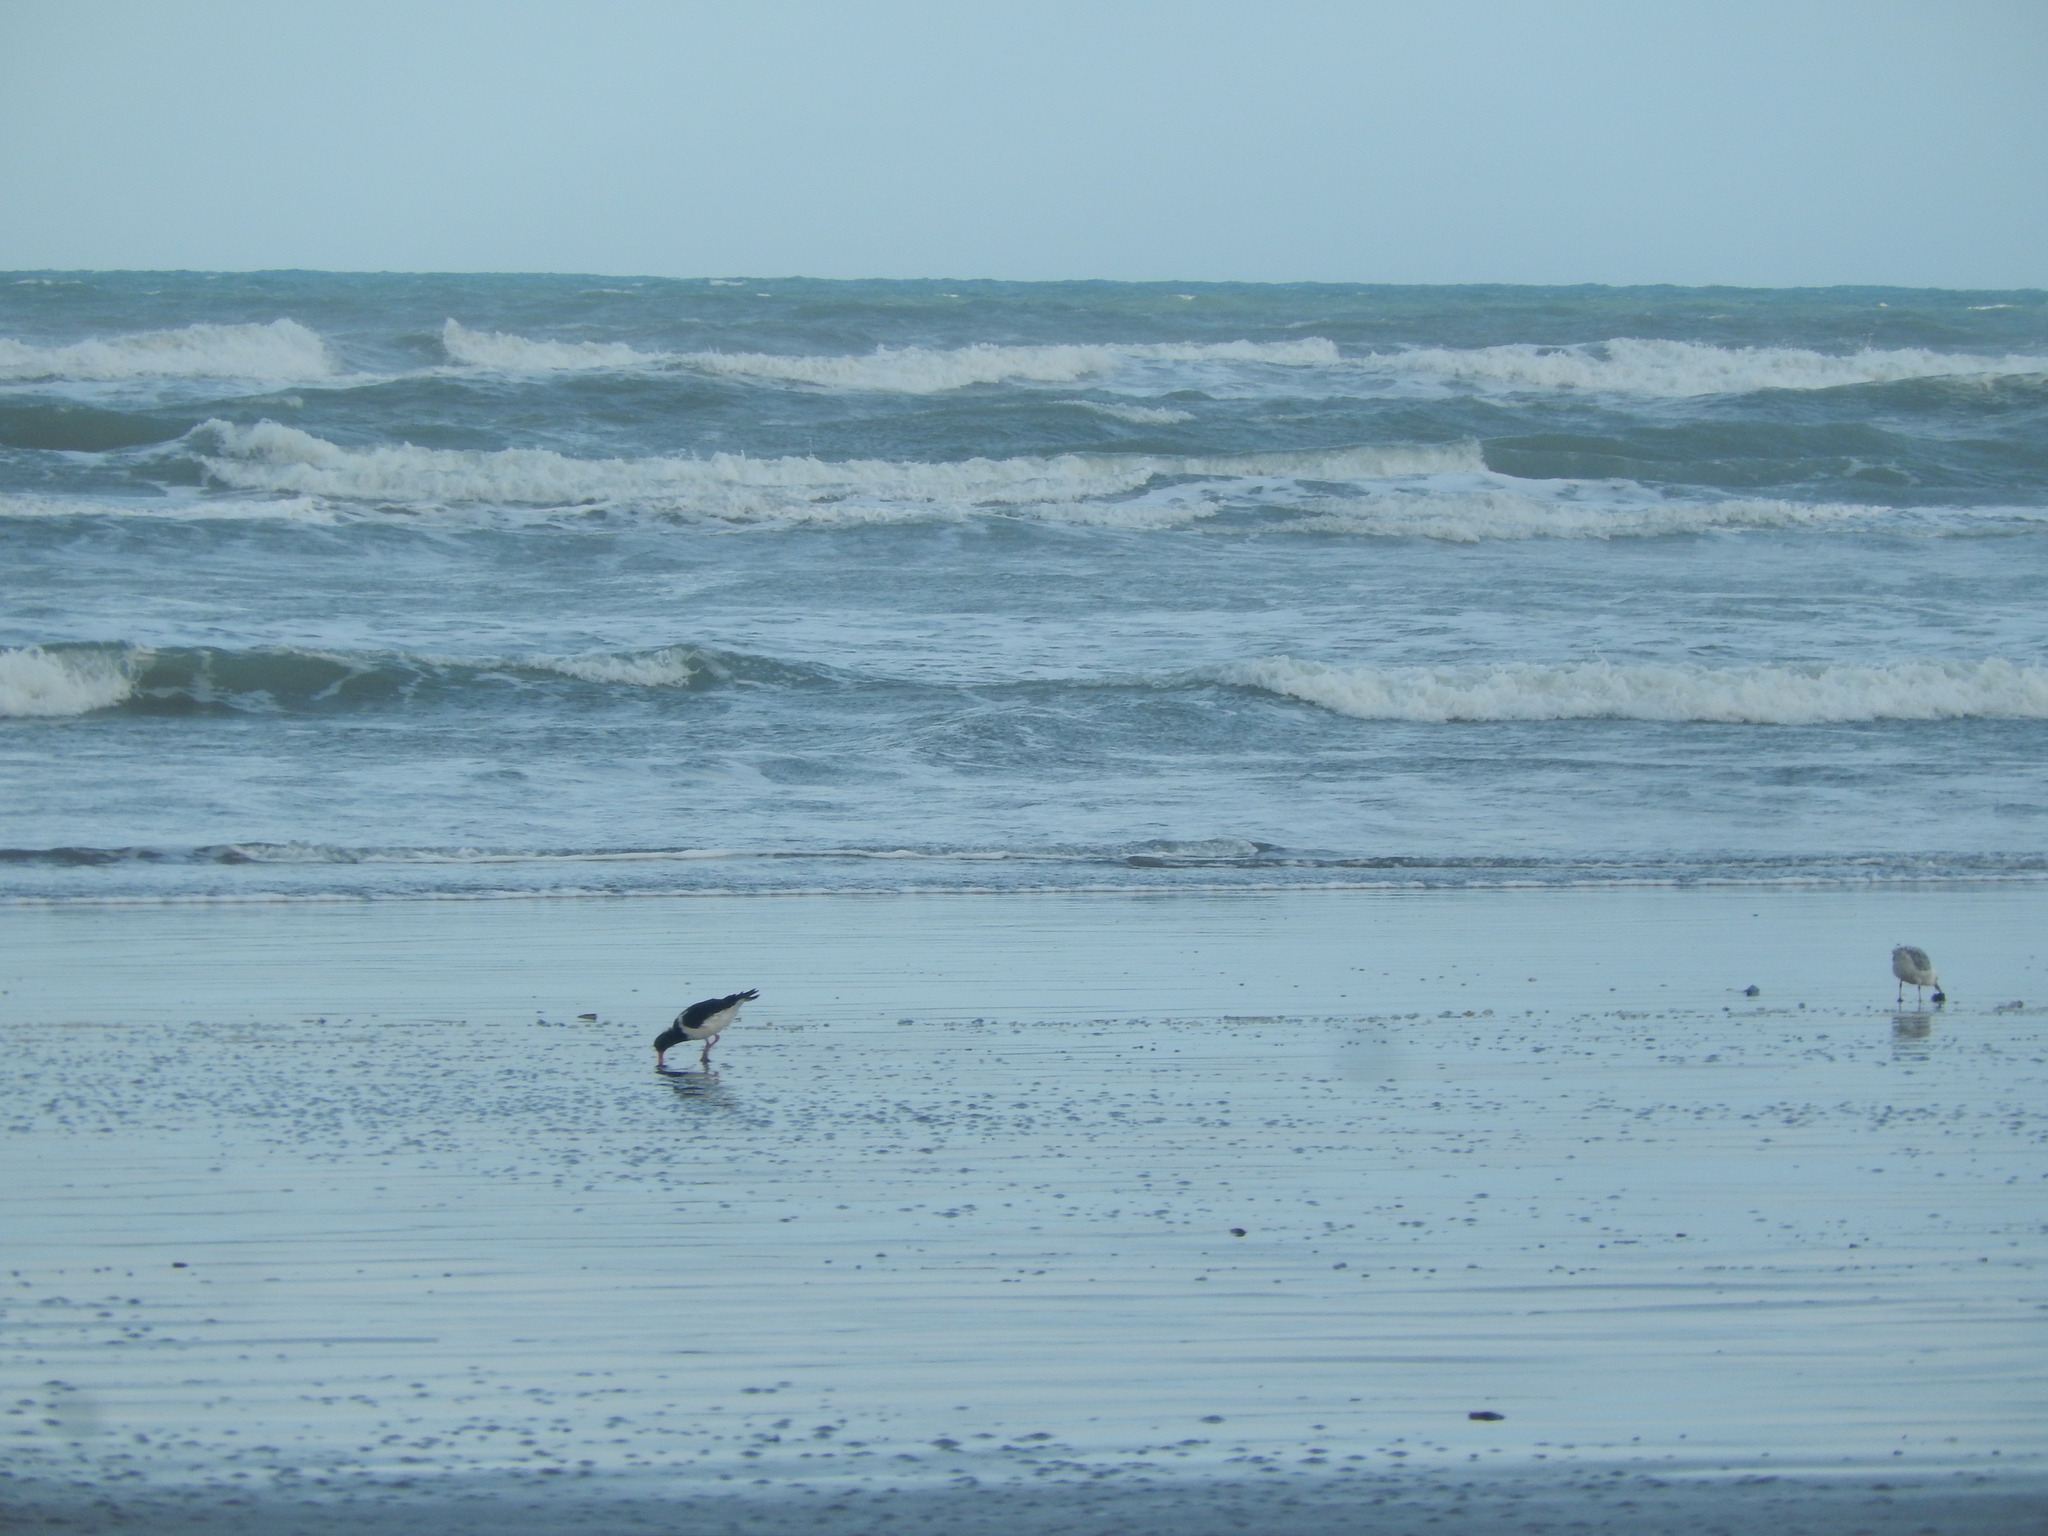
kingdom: Animalia
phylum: Chordata
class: Aves
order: Charadriiformes
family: Haematopodidae
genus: Haematopus
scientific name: Haematopus finschi
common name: South island oystercatcher
